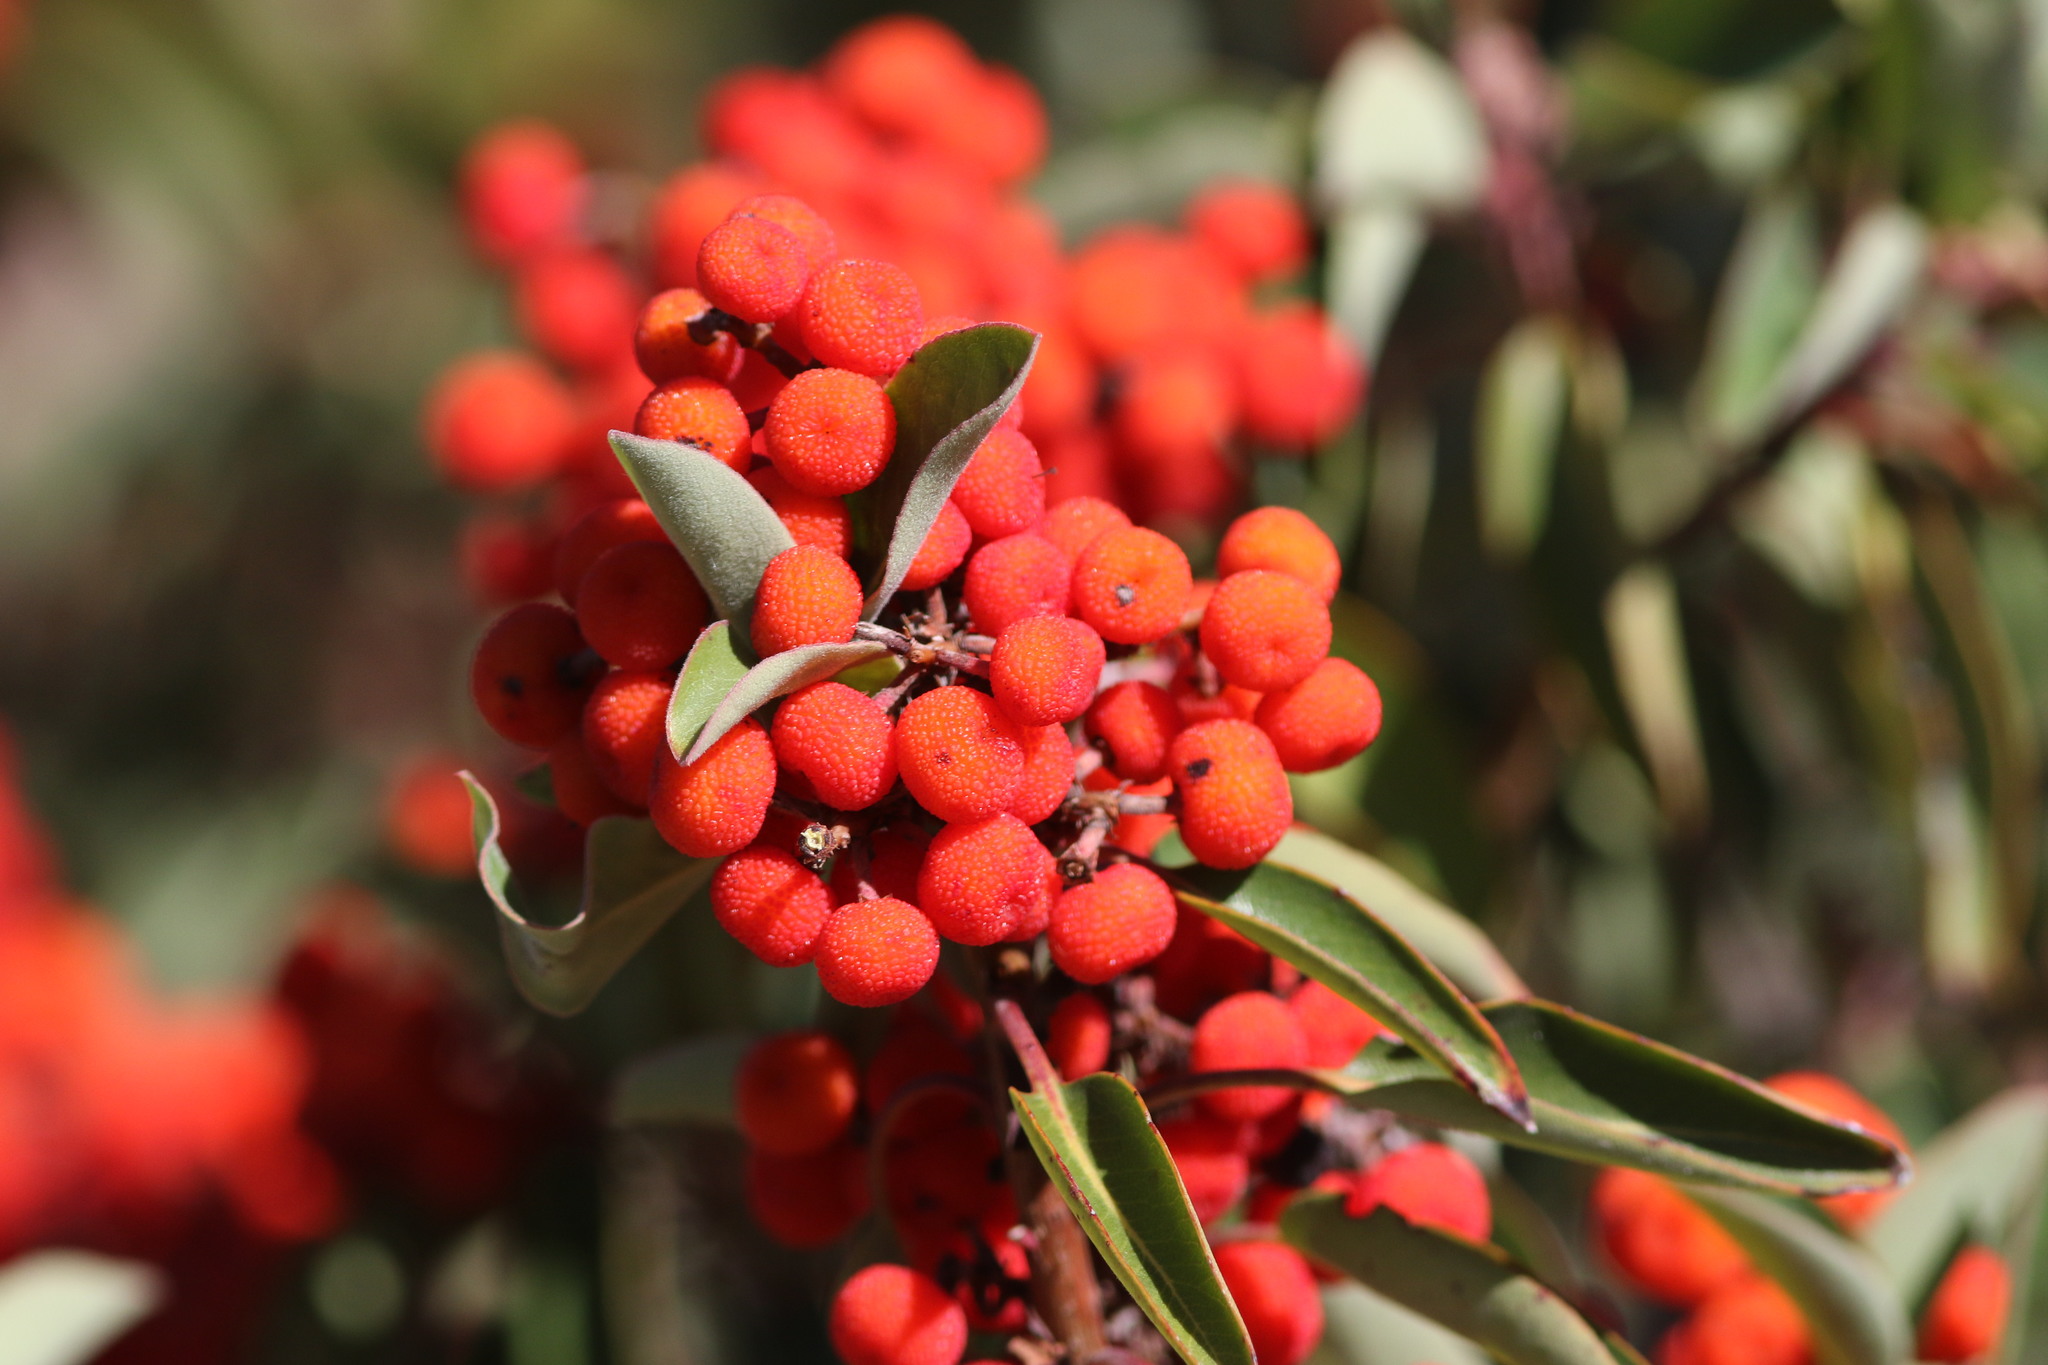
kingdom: Plantae
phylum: Tracheophyta
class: Magnoliopsida
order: Ericales
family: Ericaceae
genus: Arbutus
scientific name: Arbutus xalapensis
